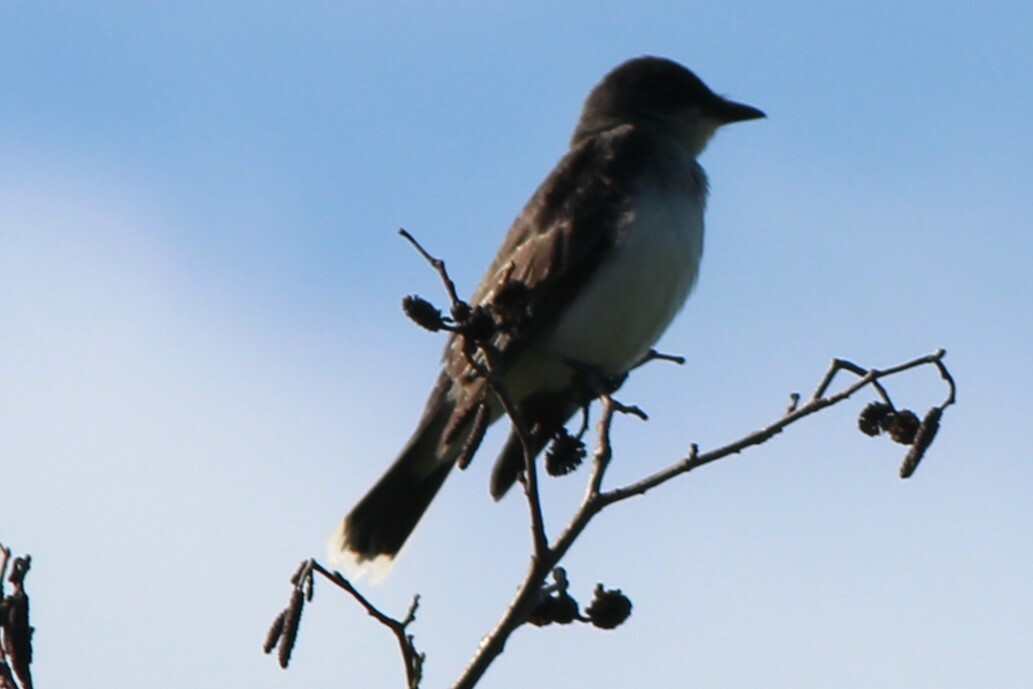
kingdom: Animalia
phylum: Chordata
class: Aves
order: Passeriformes
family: Tyrannidae
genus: Tyrannus
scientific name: Tyrannus tyrannus
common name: Eastern kingbird
